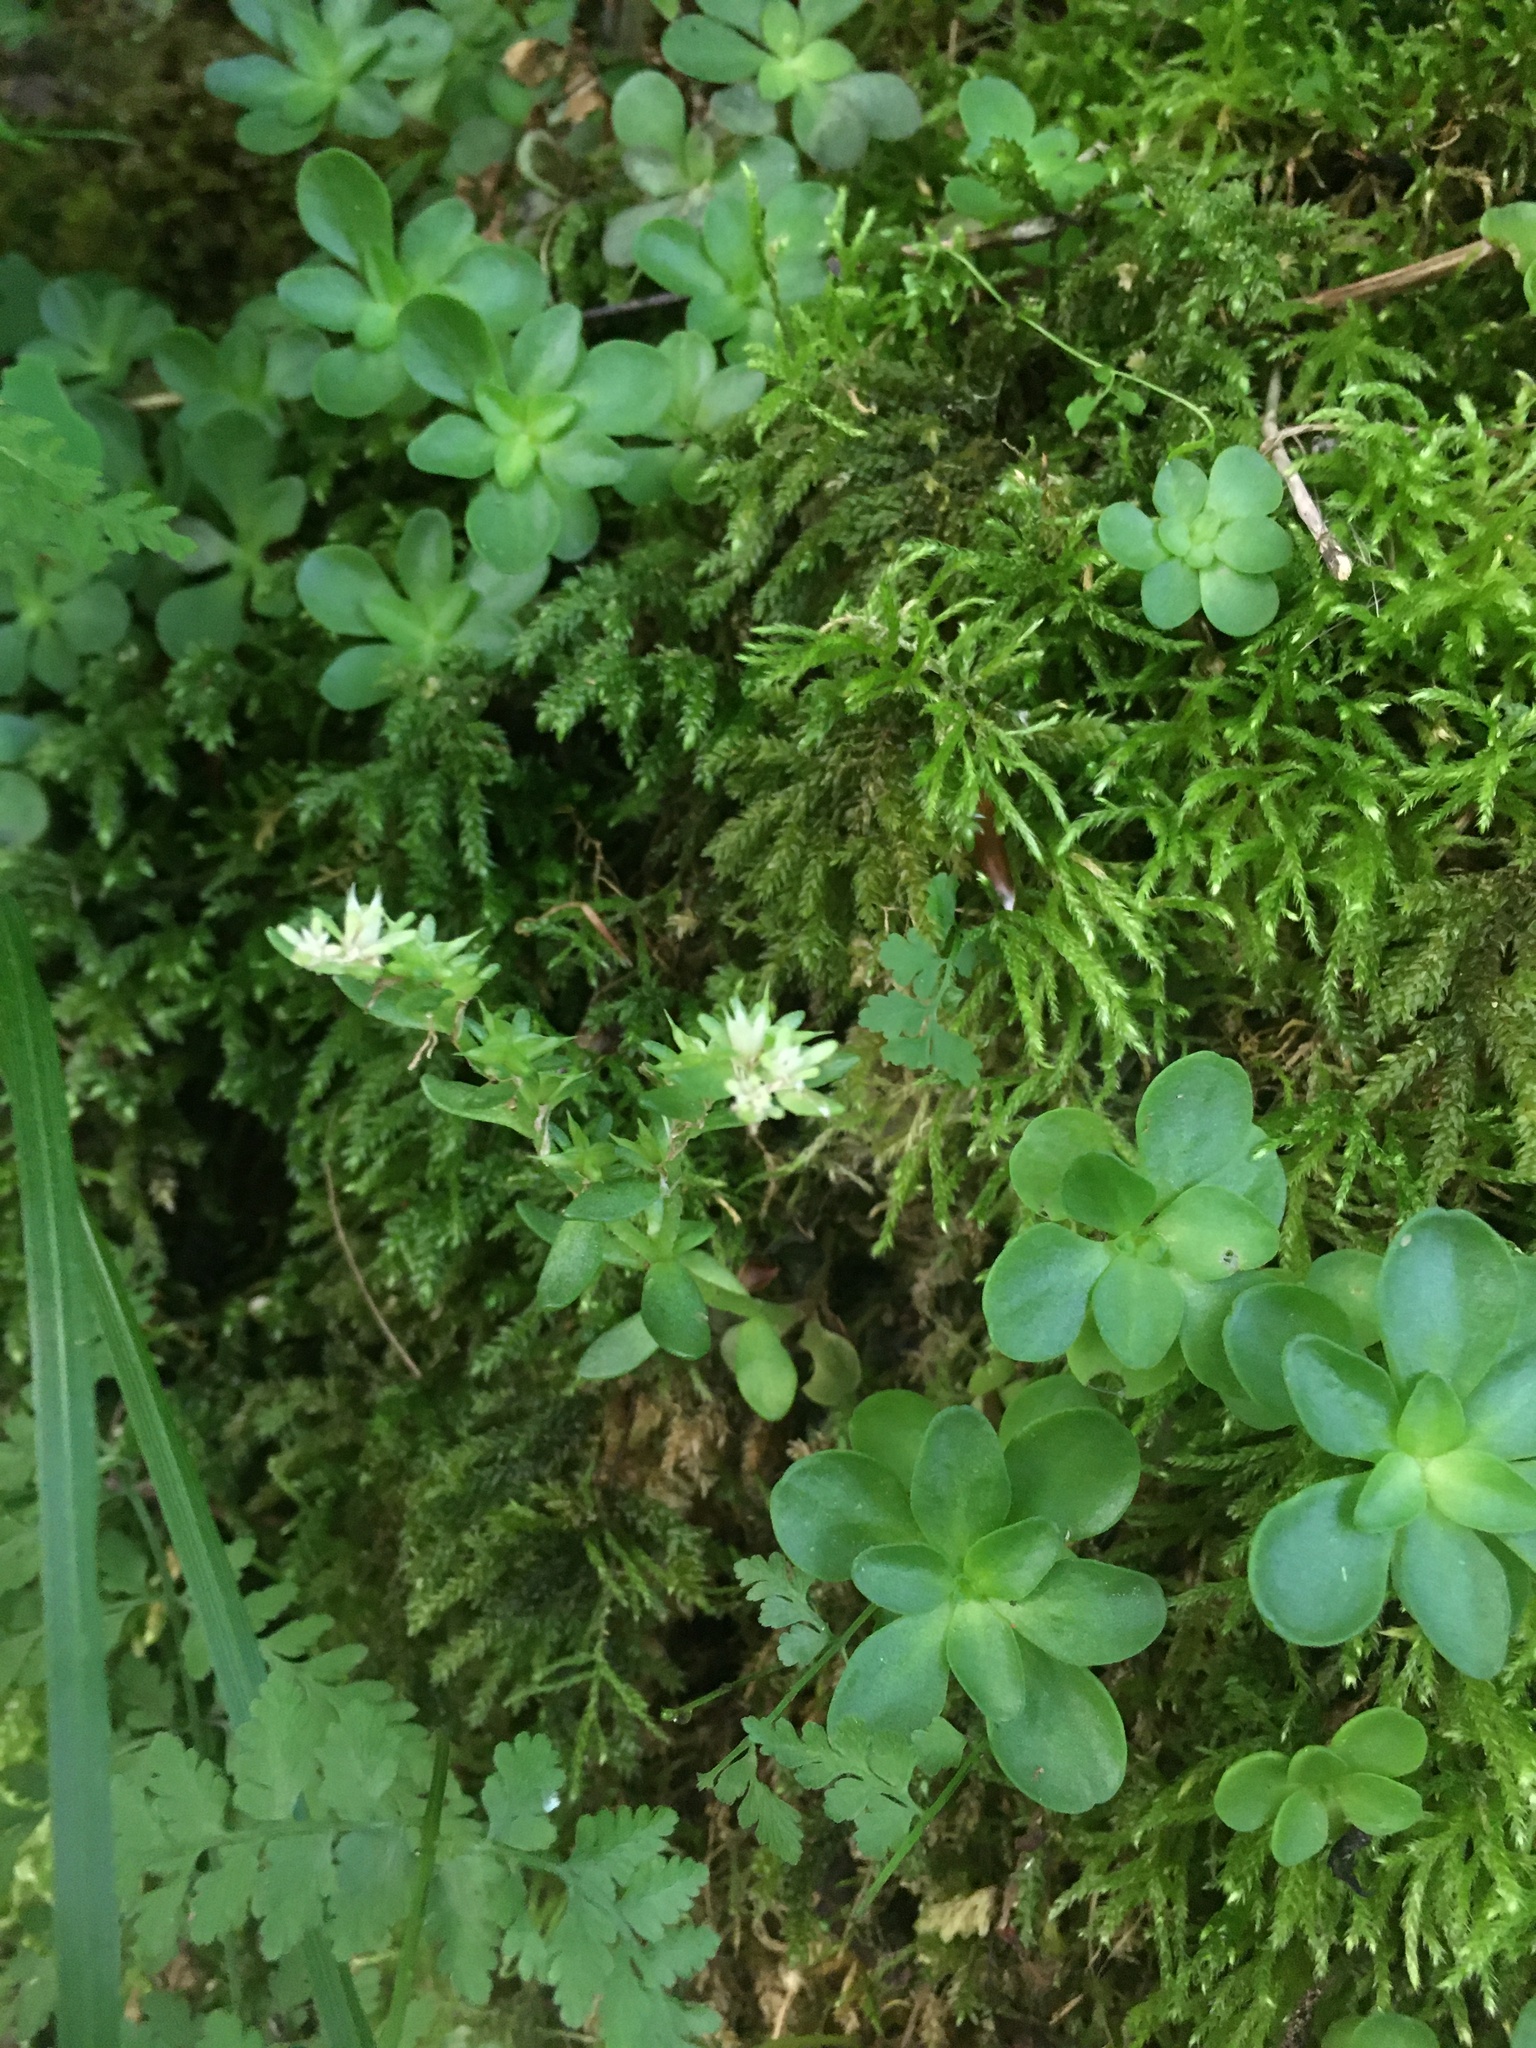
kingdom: Plantae
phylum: Tracheophyta
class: Magnoliopsida
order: Saxifragales
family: Crassulaceae
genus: Sedum
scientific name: Sedum ternatum
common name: Wild stonecrop
